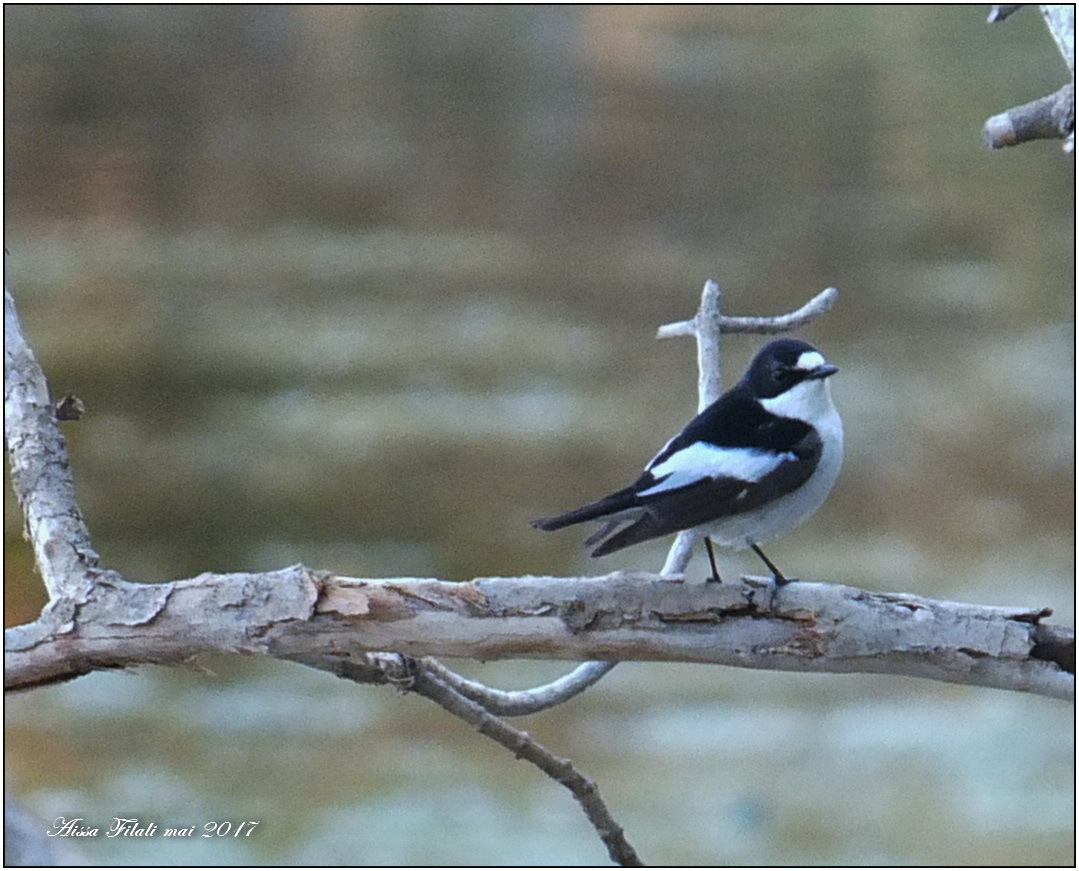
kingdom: Animalia
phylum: Chordata
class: Aves
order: Passeriformes
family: Muscicapidae
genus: Ficedula
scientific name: Ficedula hypoleuca
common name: European pied flycatcher
